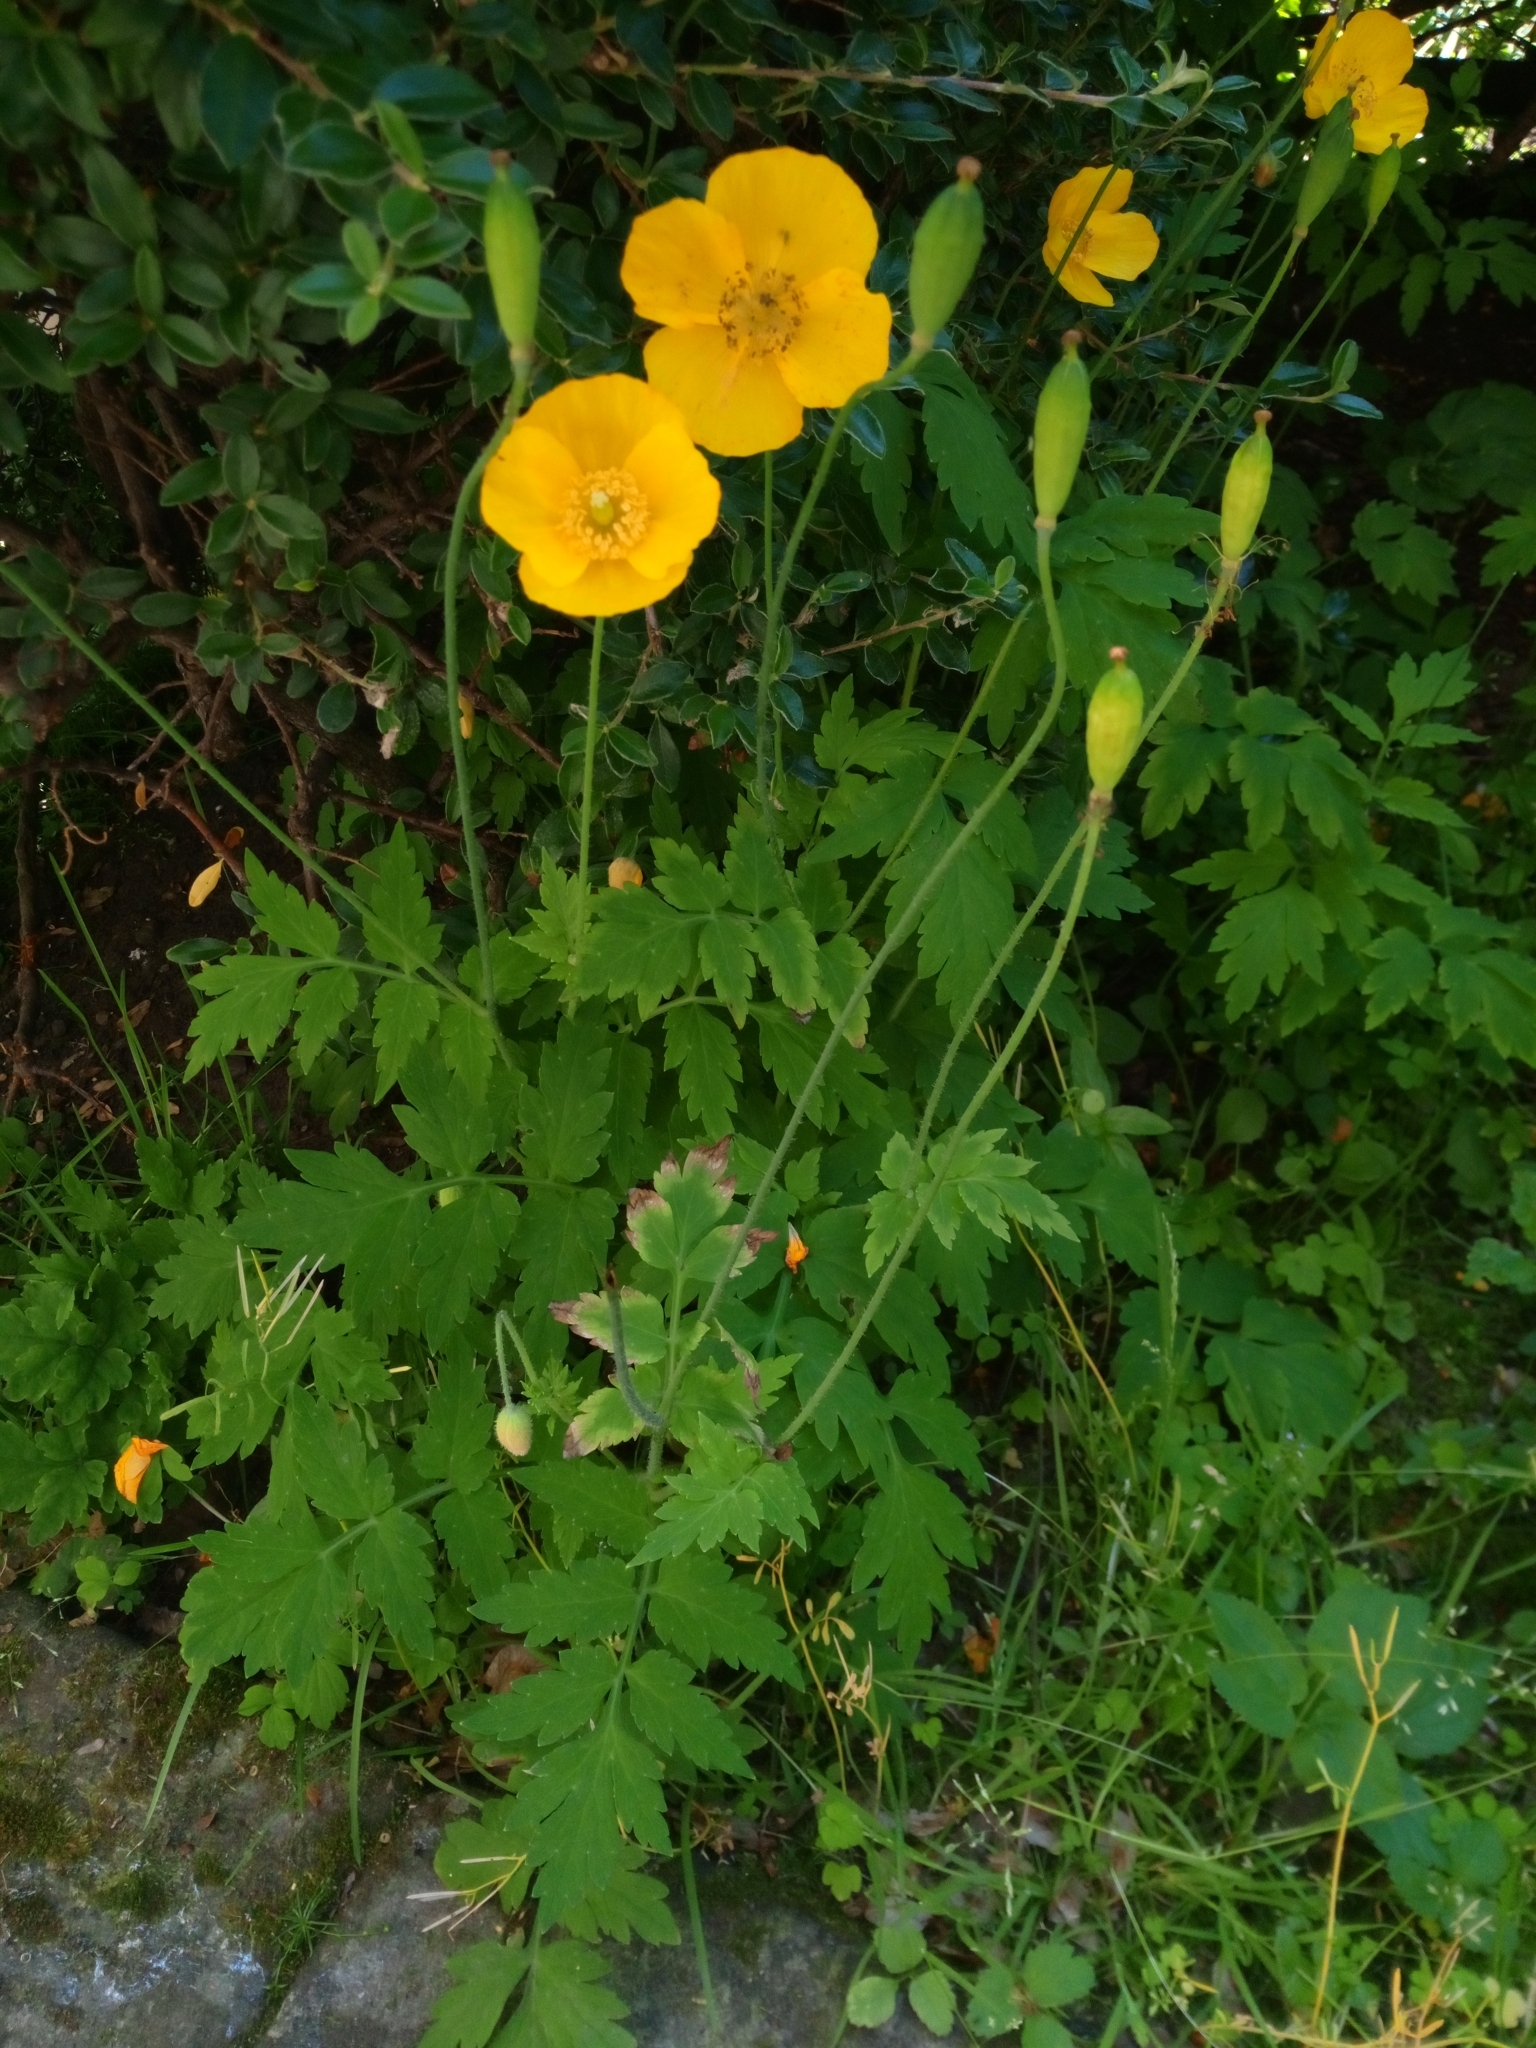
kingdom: Plantae
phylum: Tracheophyta
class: Magnoliopsida
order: Ranunculales
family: Papaveraceae
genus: Papaver
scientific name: Papaver cambricum
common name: Poppy
